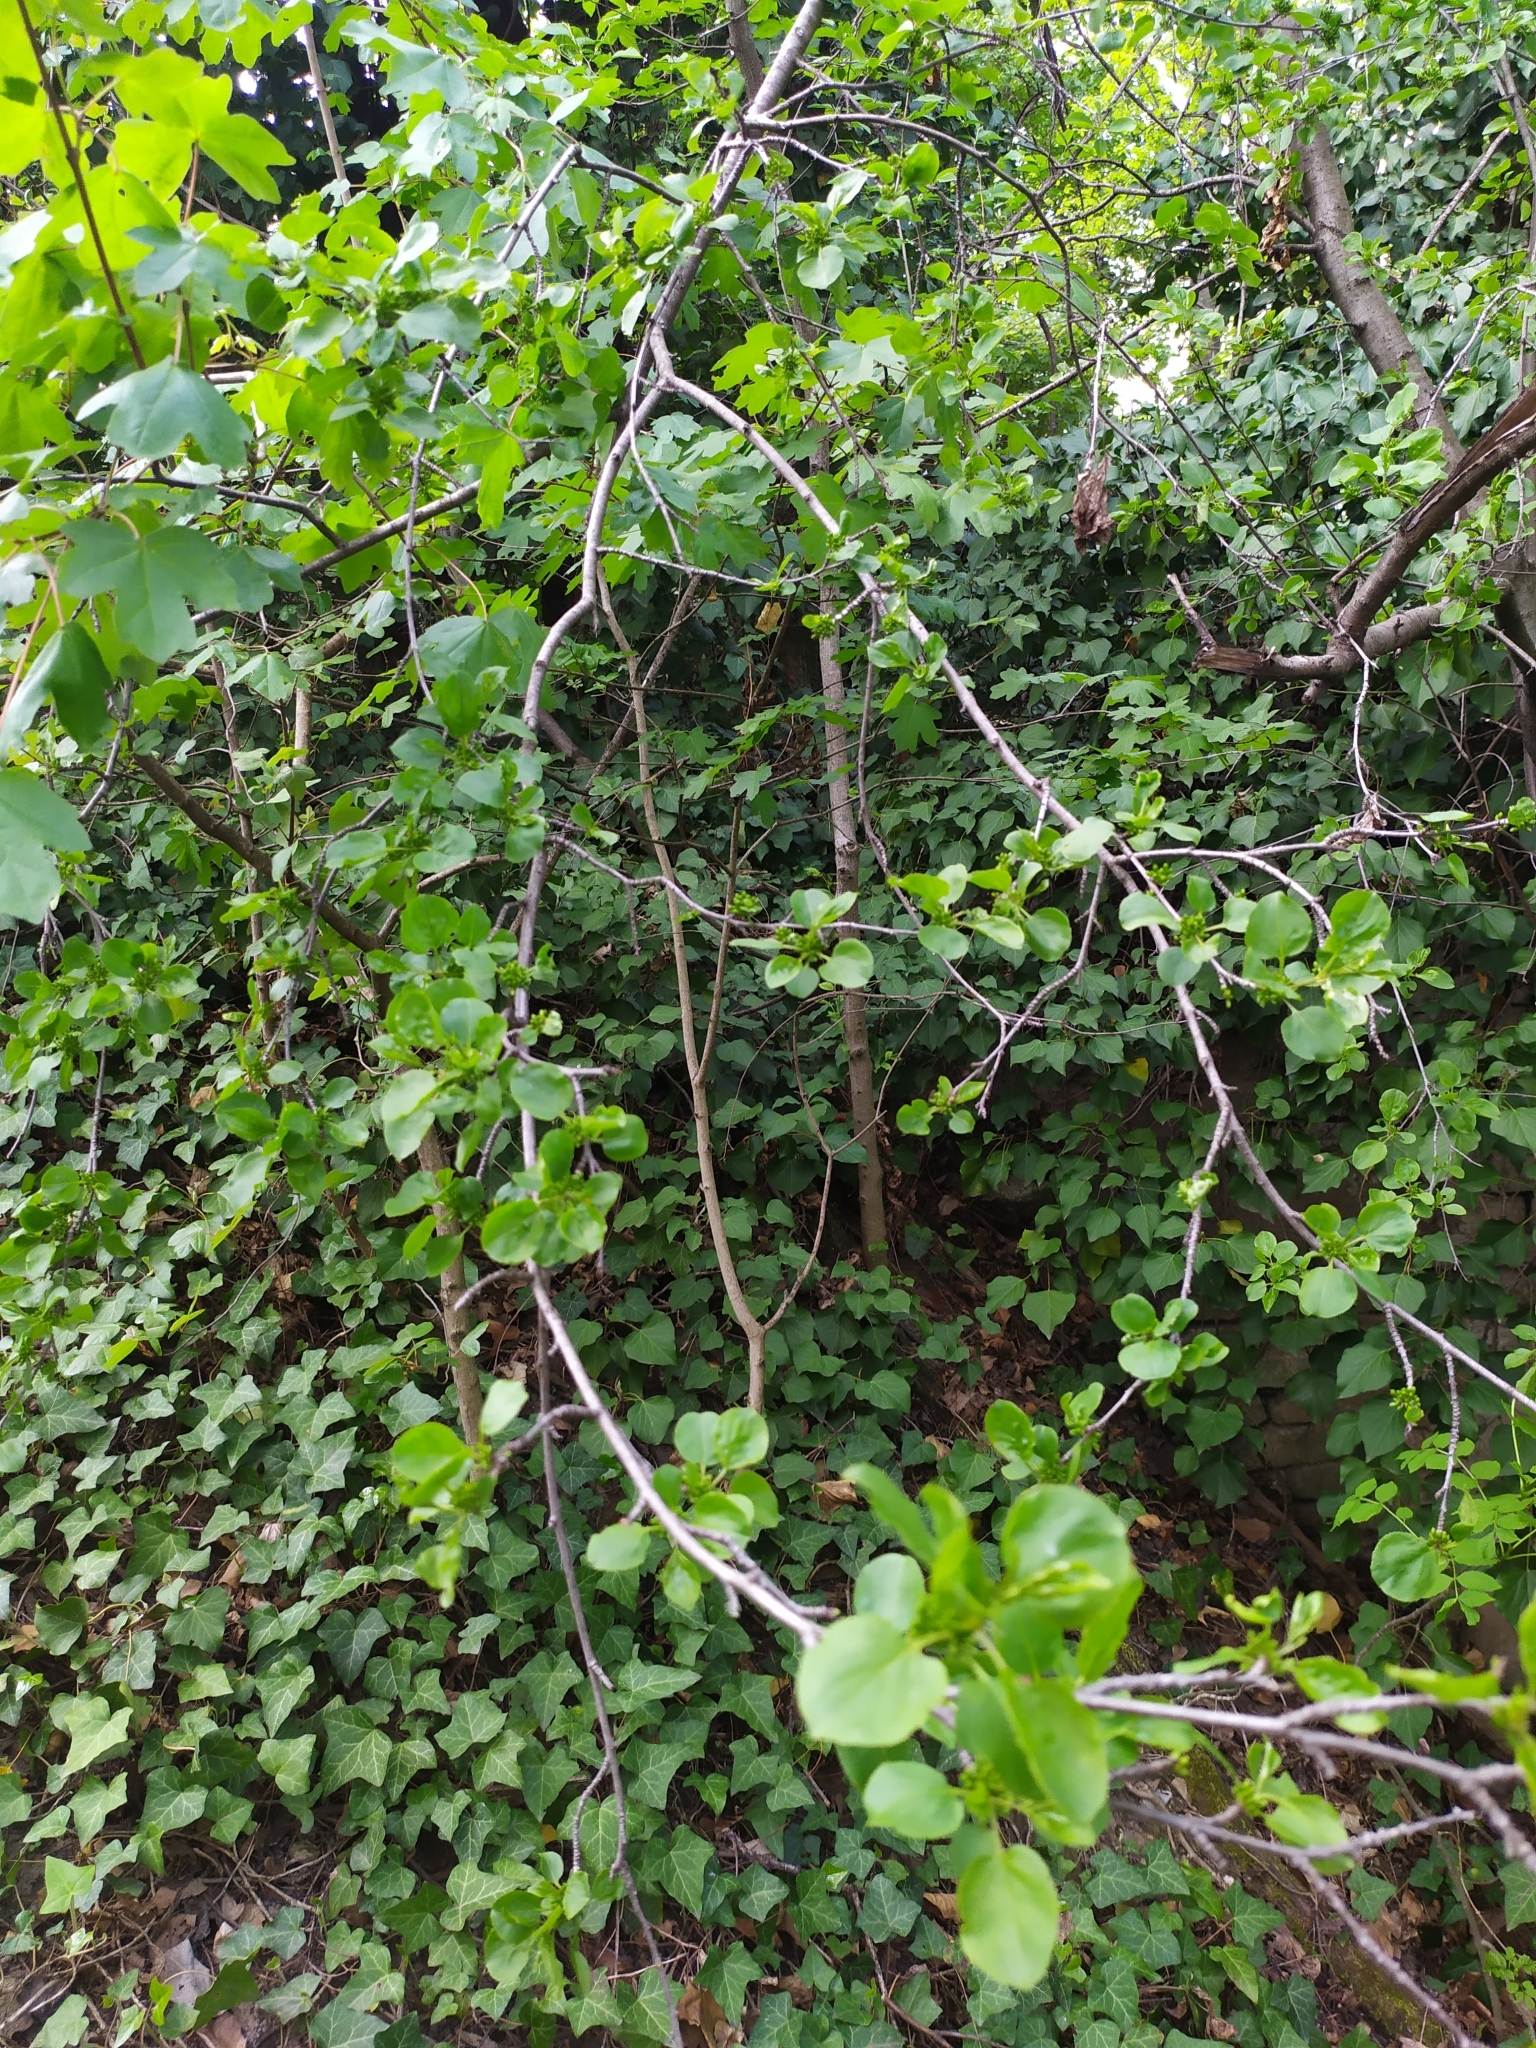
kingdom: Plantae
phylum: Tracheophyta
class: Magnoliopsida
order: Rosales
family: Rhamnaceae
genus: Rhamnus
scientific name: Rhamnus cathartica
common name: Common buckthorn
